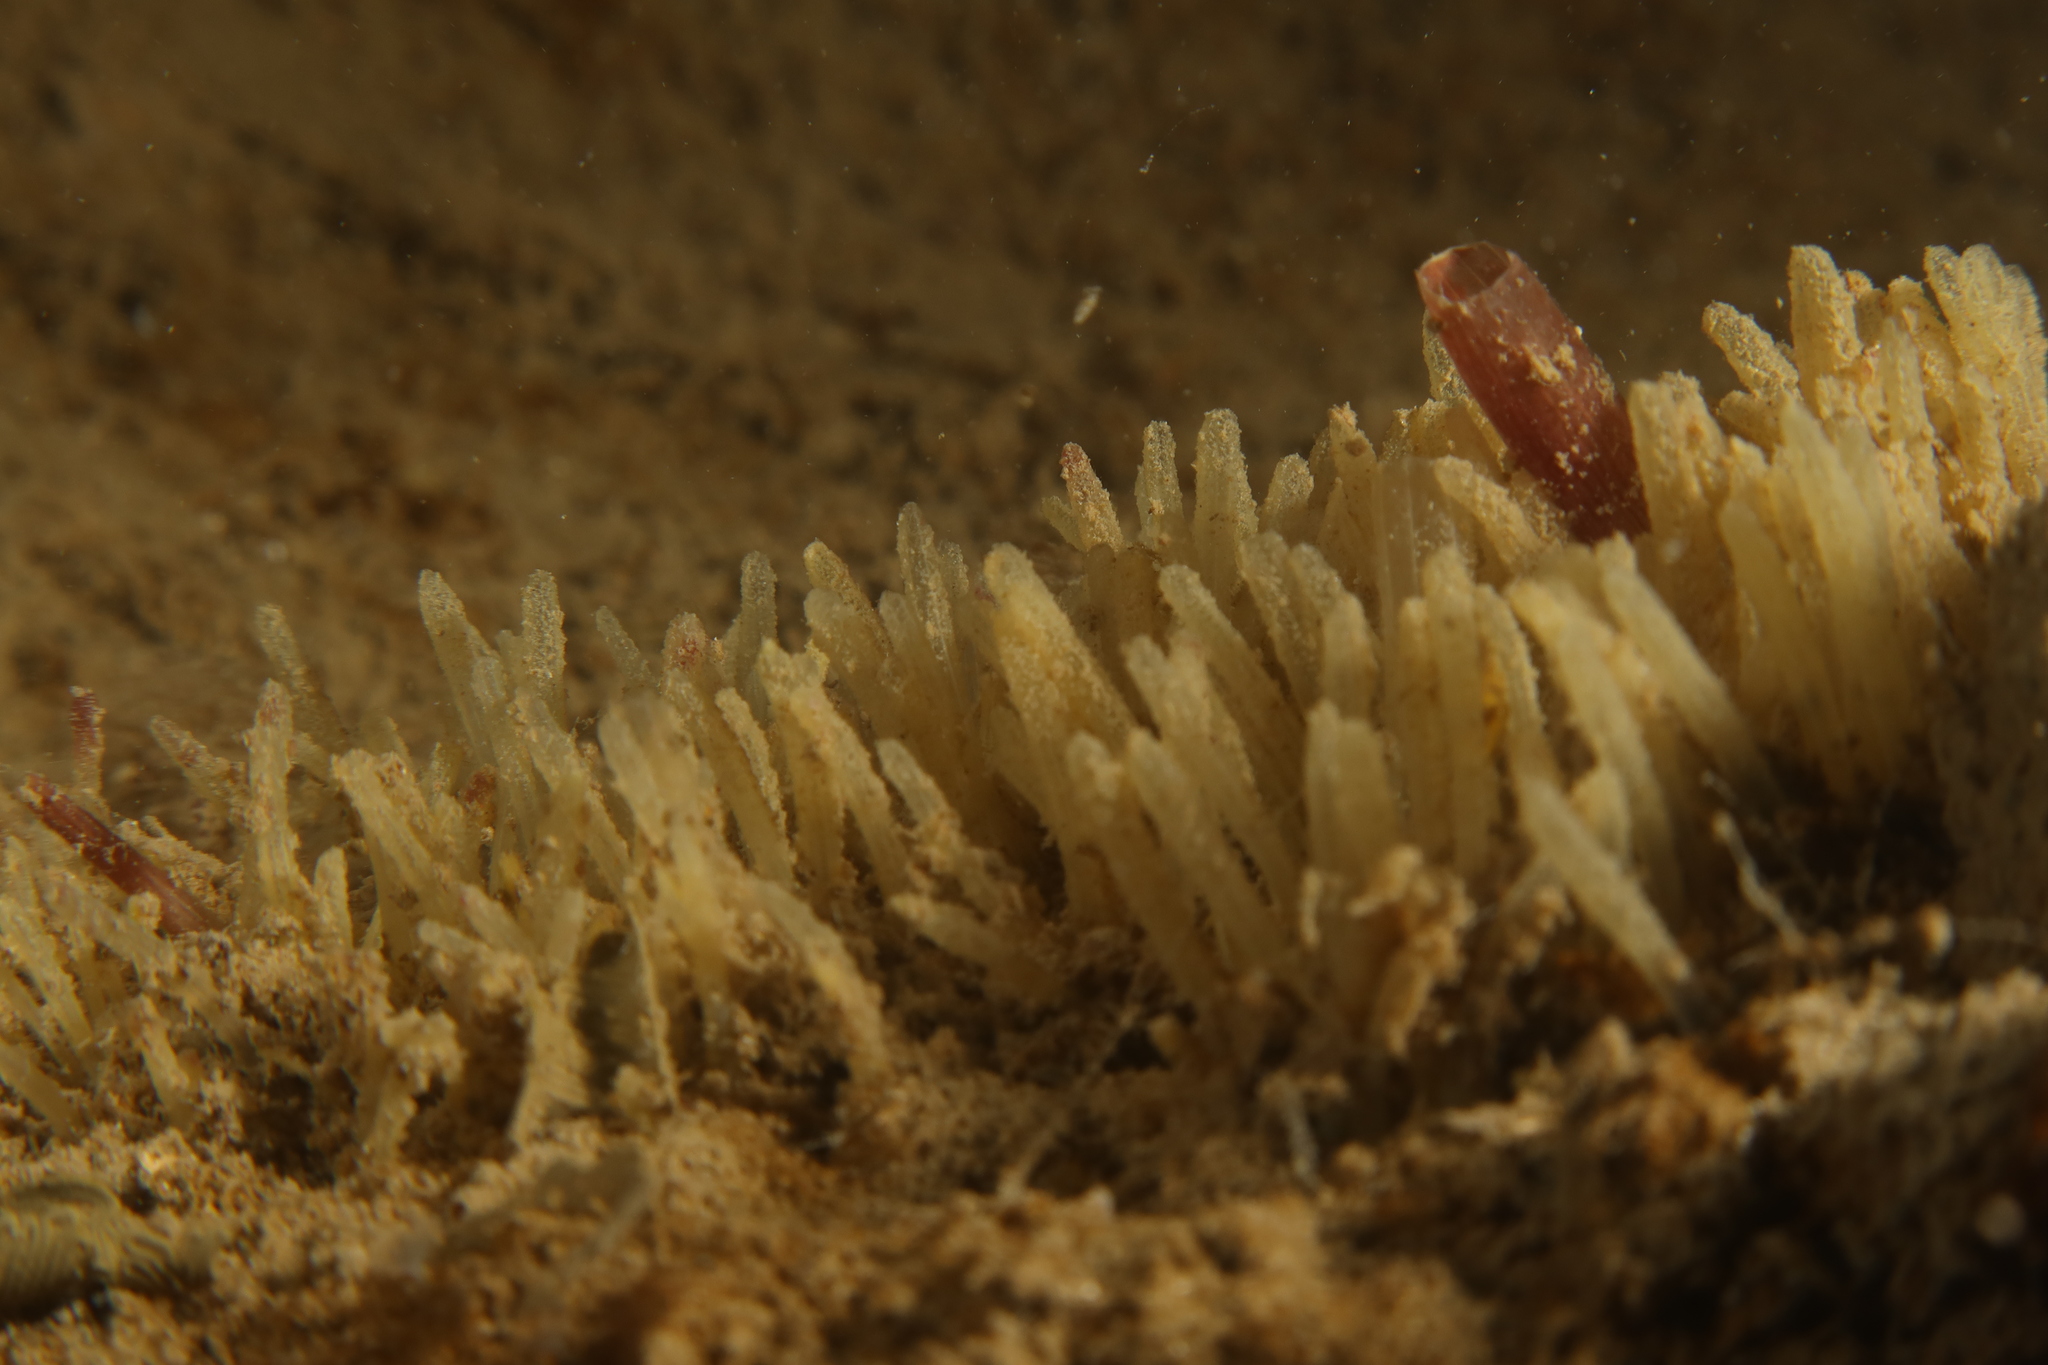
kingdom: Animalia
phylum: Porifera
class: Demospongiae
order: Polymastiida
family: Polymastiidae
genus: Polymastia
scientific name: Polymastia penicillus
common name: Chimney sponge
